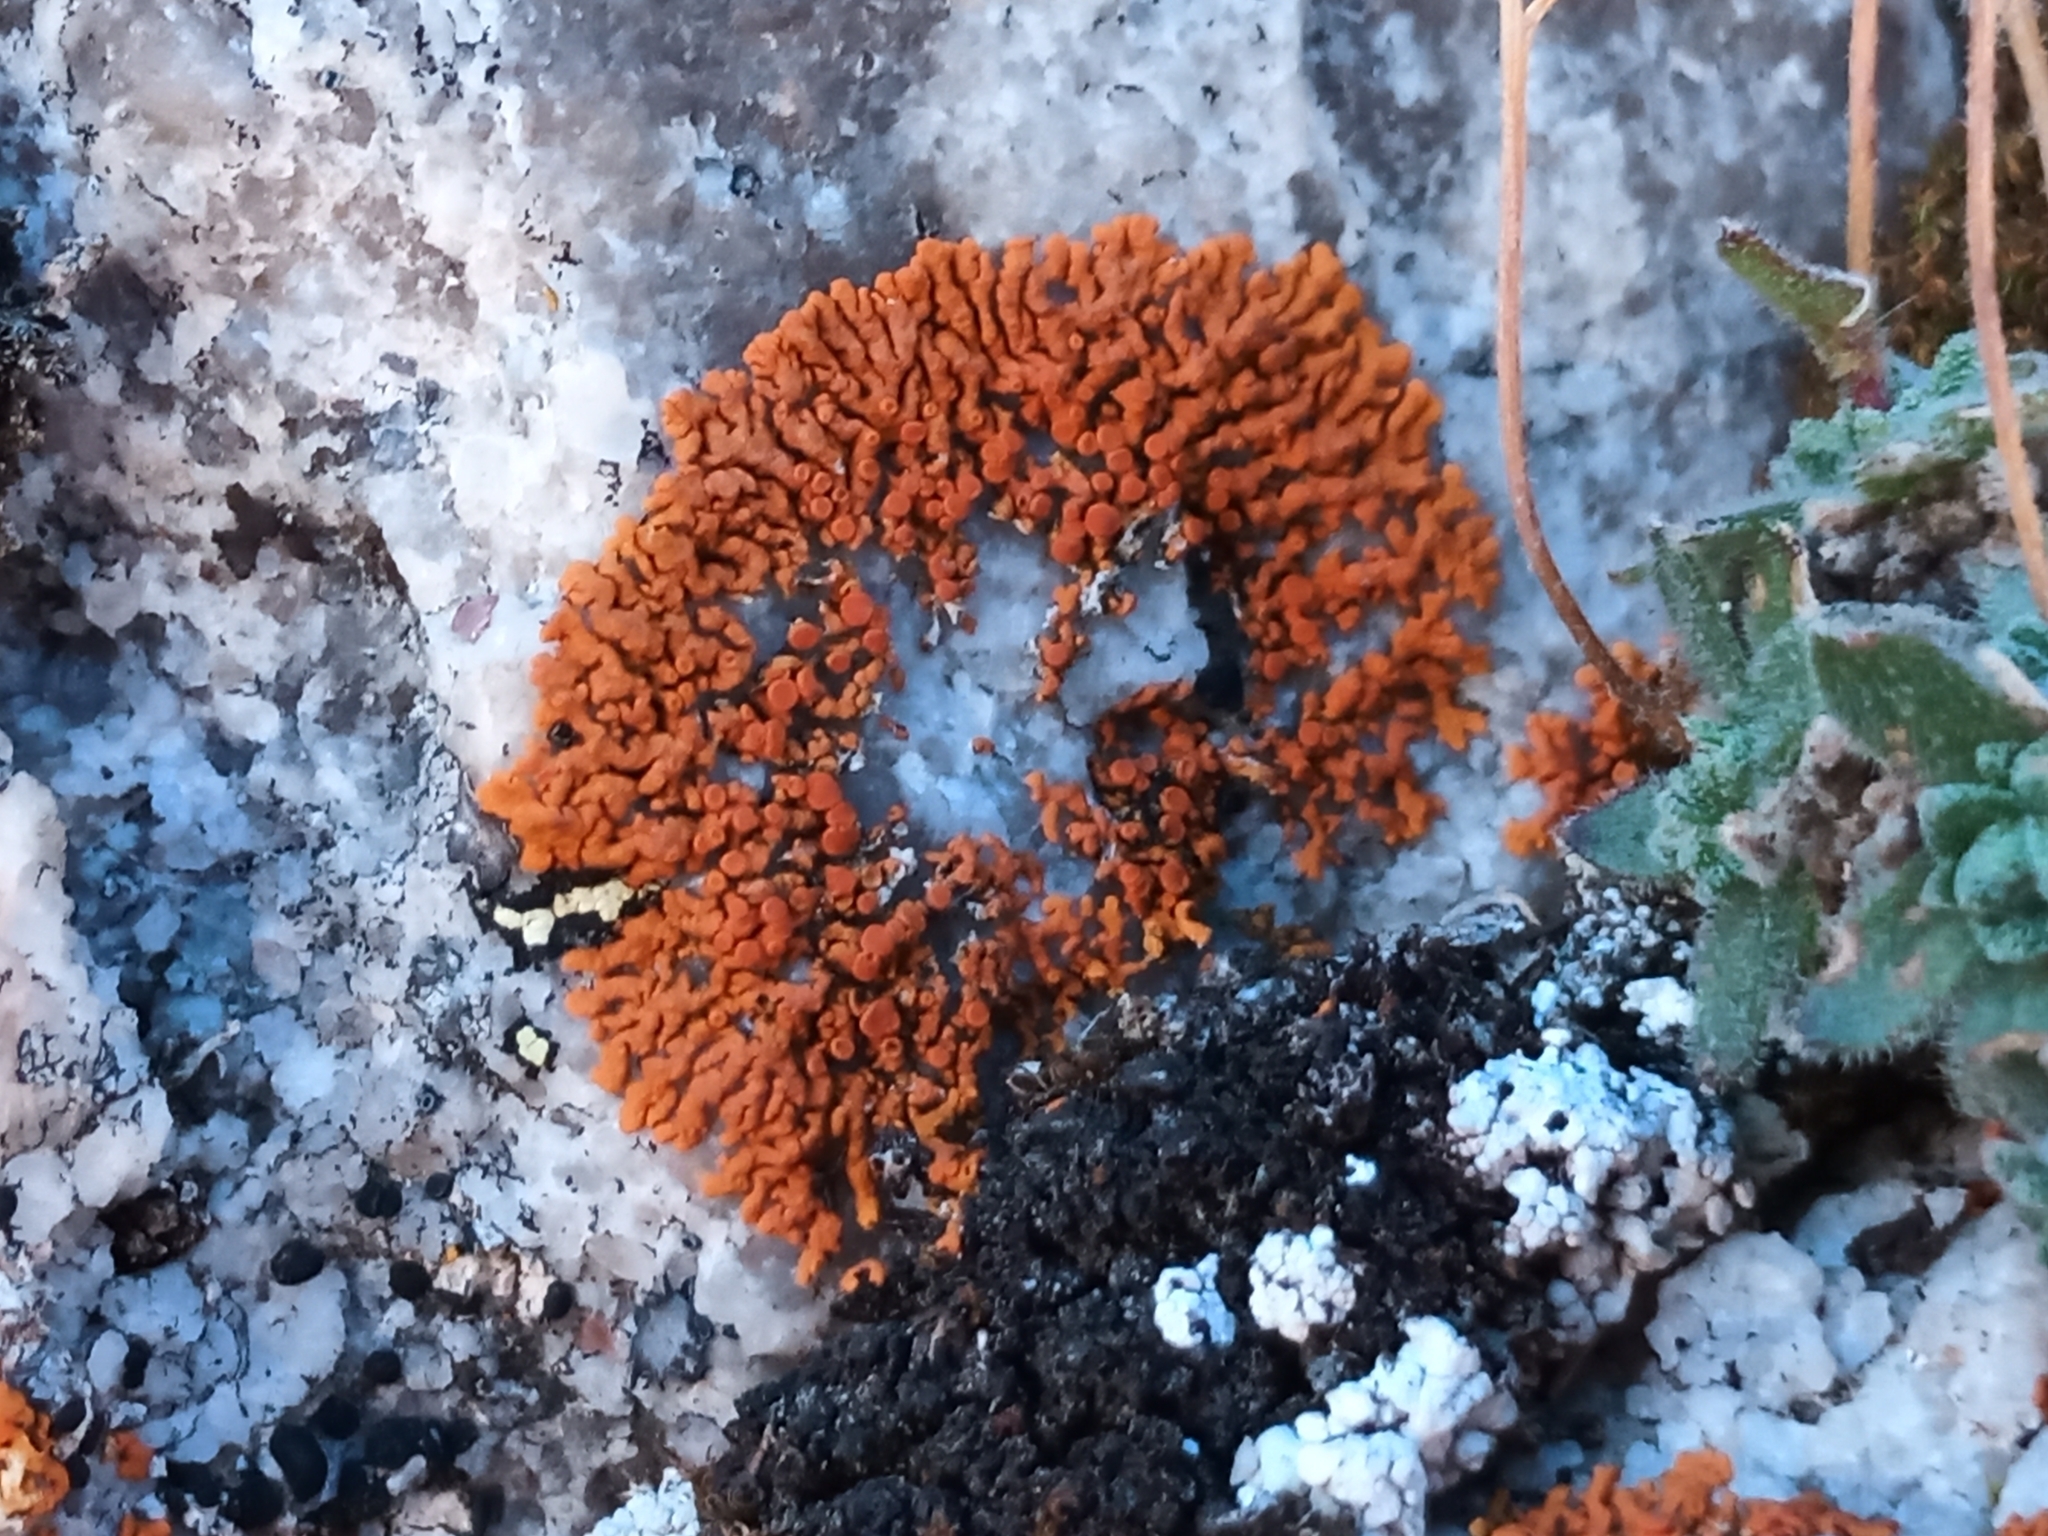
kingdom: Fungi
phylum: Ascomycota
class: Lecanoromycetes
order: Teloschistales
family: Teloschistaceae
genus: Xanthoria
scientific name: Xanthoria elegans
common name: Elegant sunburst lichen
